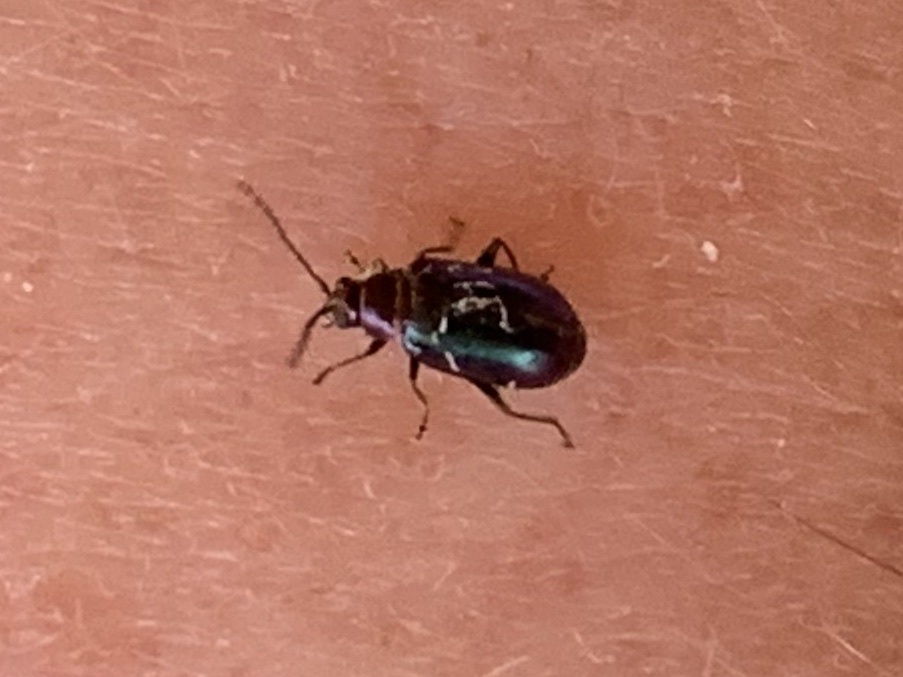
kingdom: Animalia
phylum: Arthropoda
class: Insecta
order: Coleoptera
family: Chrysomelidae
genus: Altica
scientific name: Altica torquata
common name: Leaf beetle
